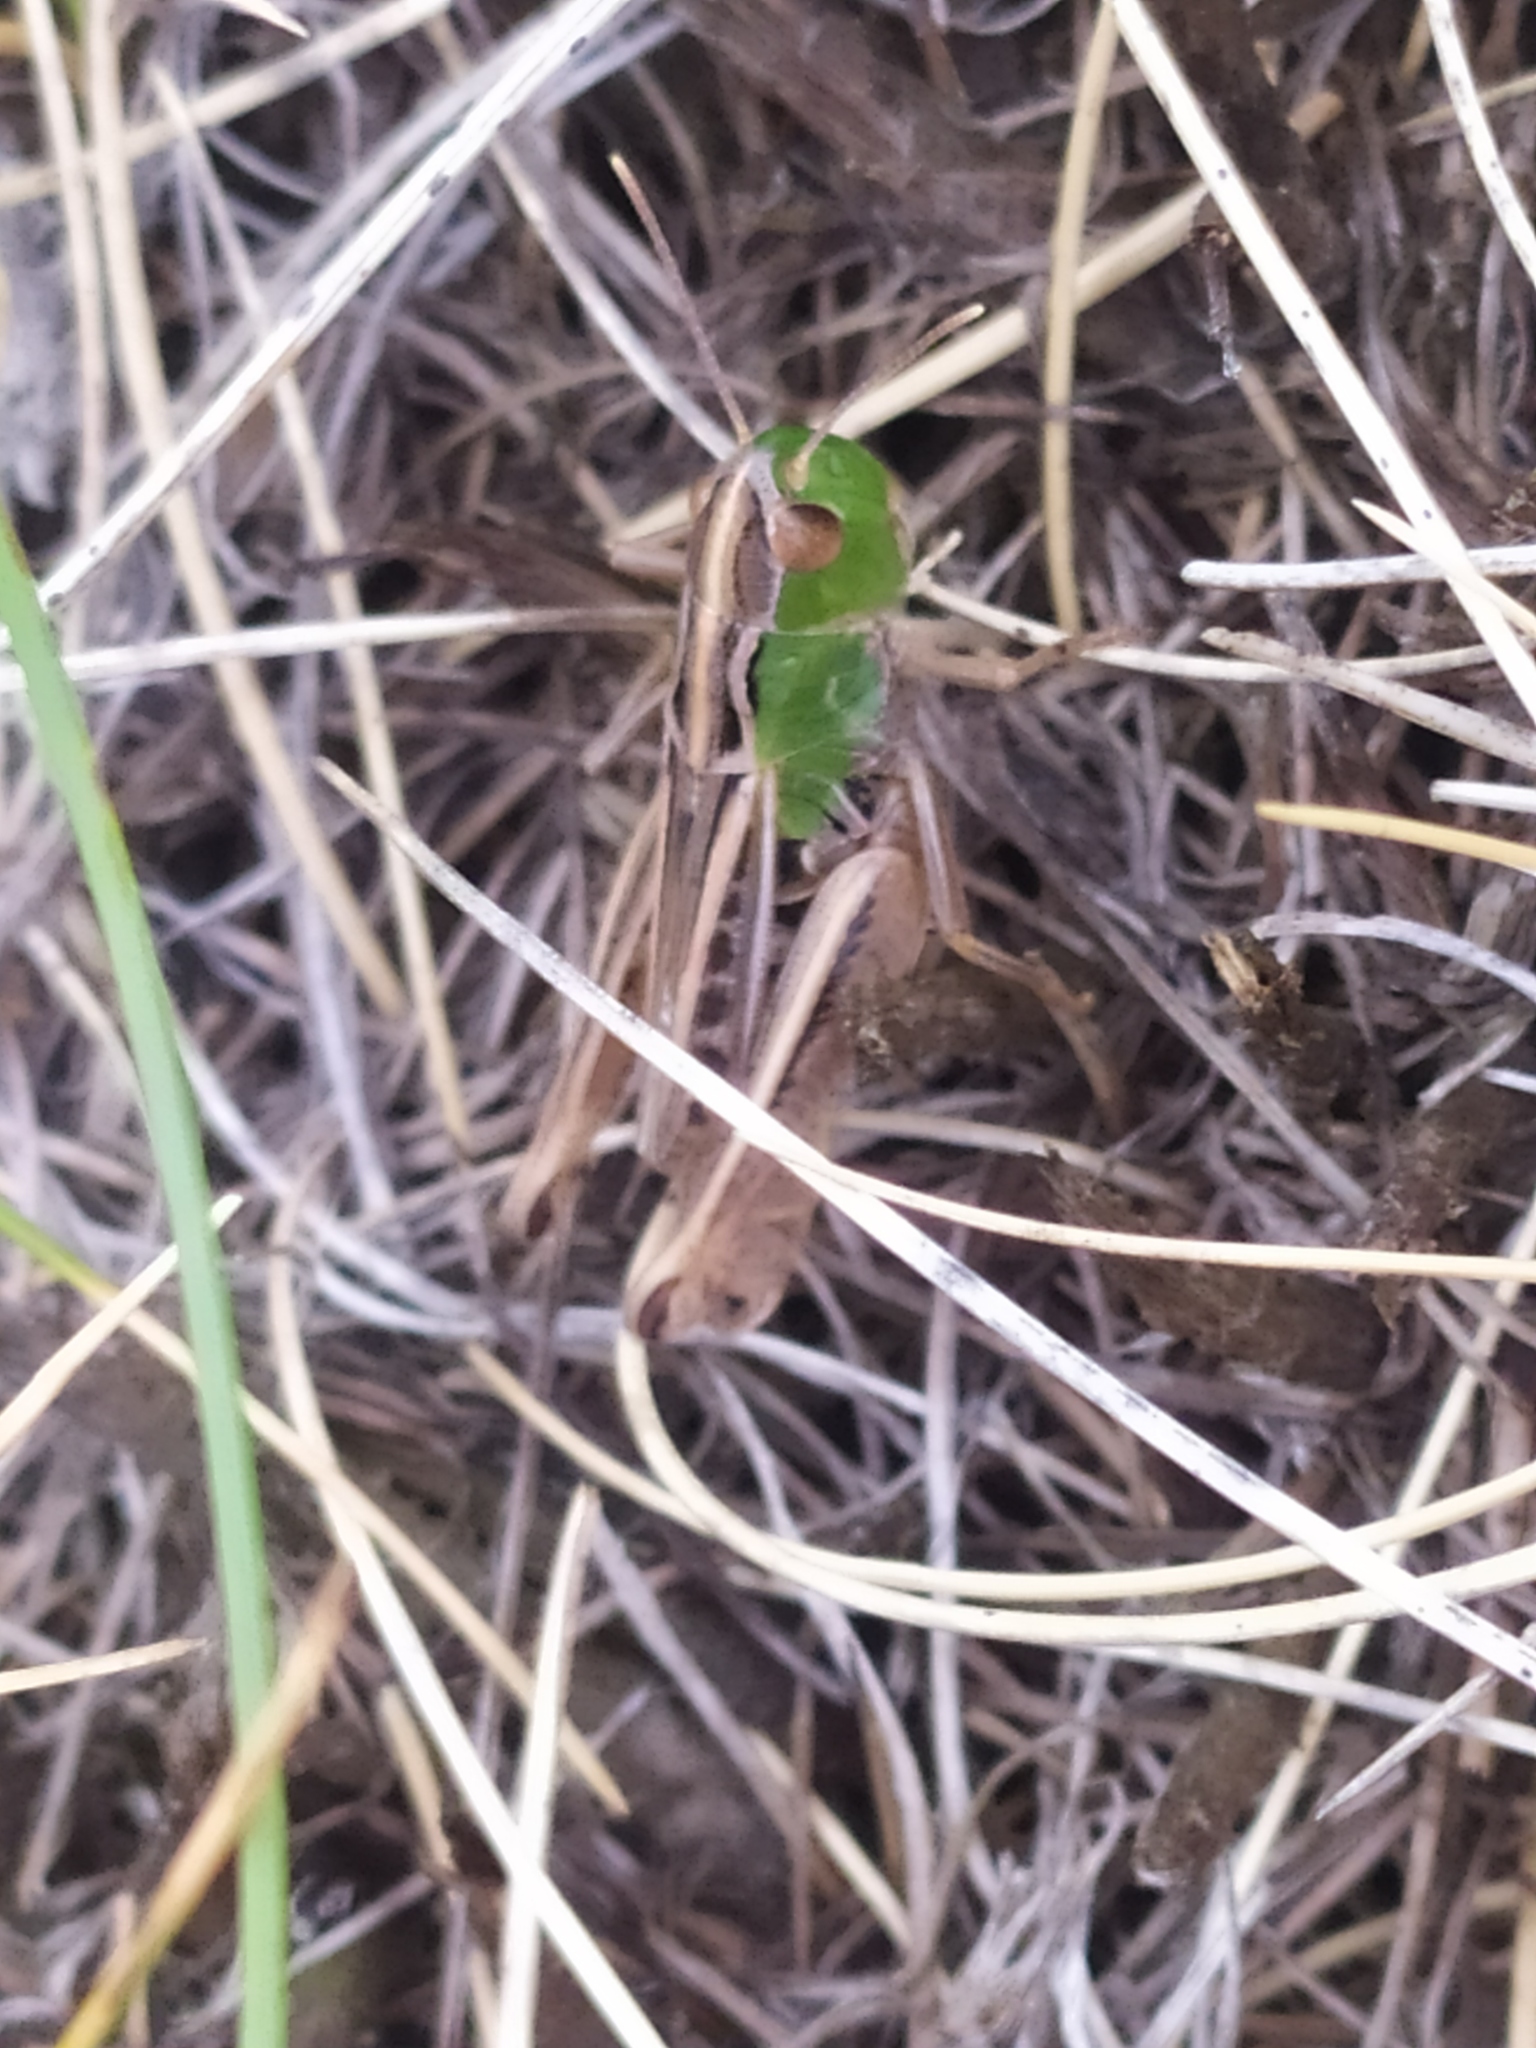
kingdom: Animalia
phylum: Arthropoda
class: Insecta
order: Orthoptera
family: Acrididae
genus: Stenobothrus
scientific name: Stenobothrus nigromaculatus
